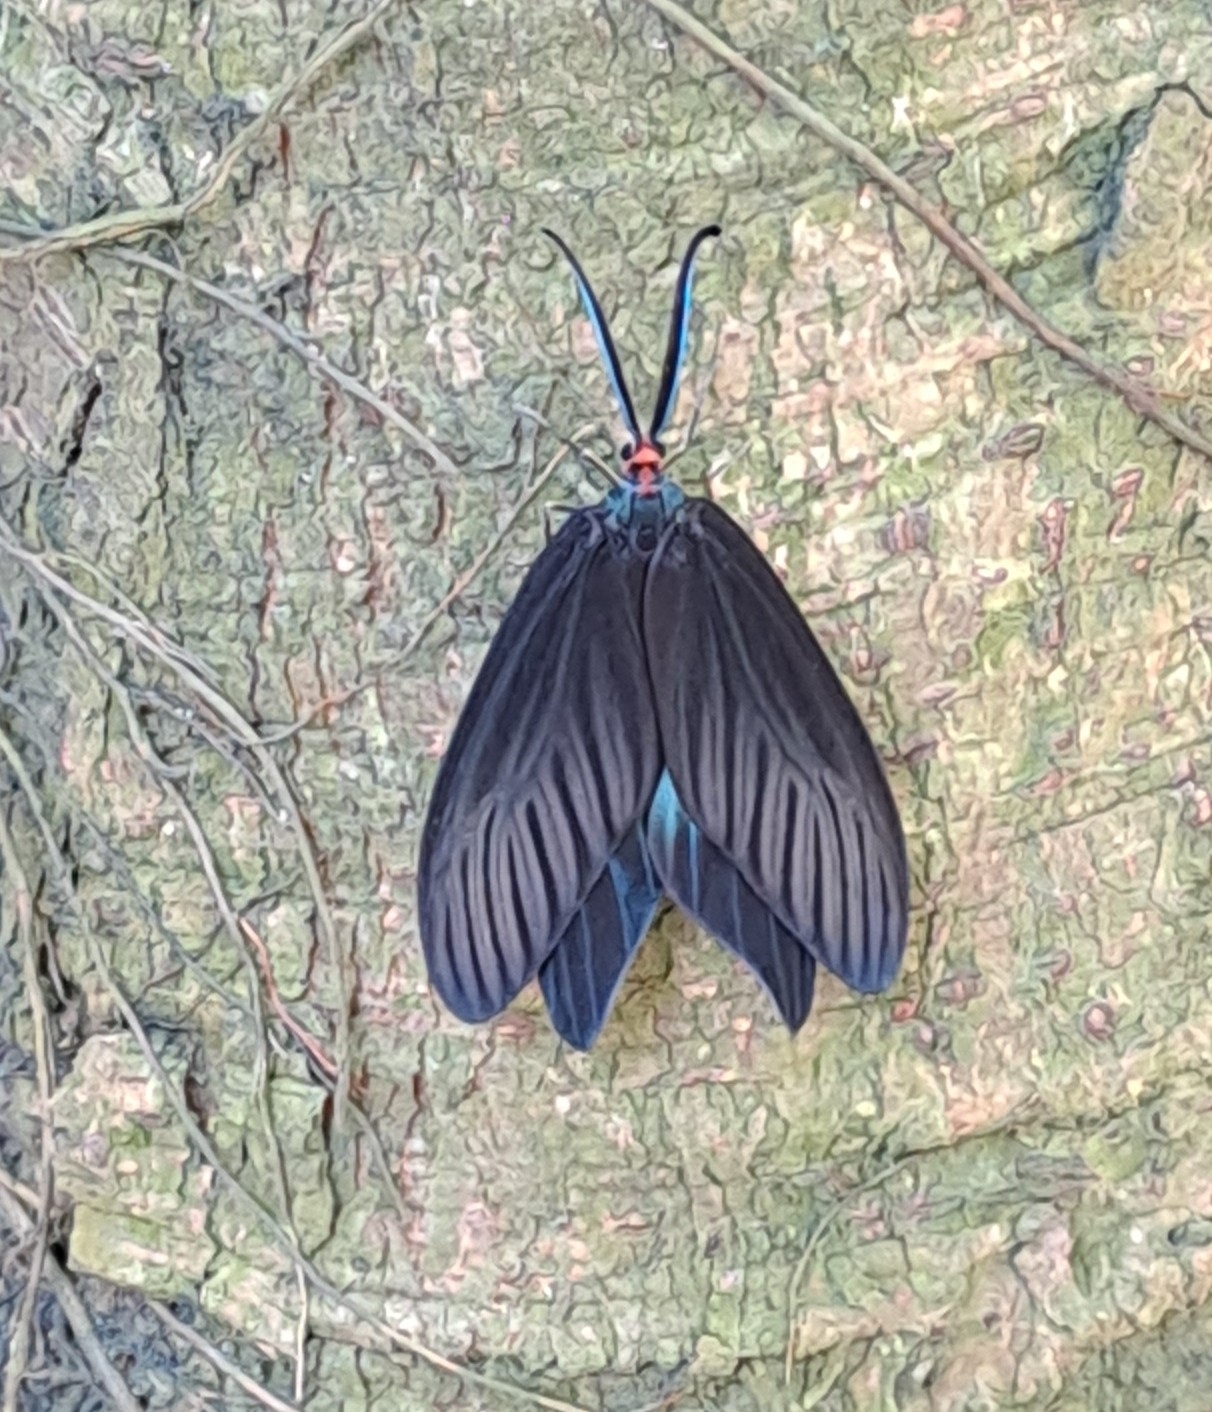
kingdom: Animalia
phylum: Arthropoda
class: Insecta
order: Lepidoptera
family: Zygaenidae
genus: Histia
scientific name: Histia flabellicornis
